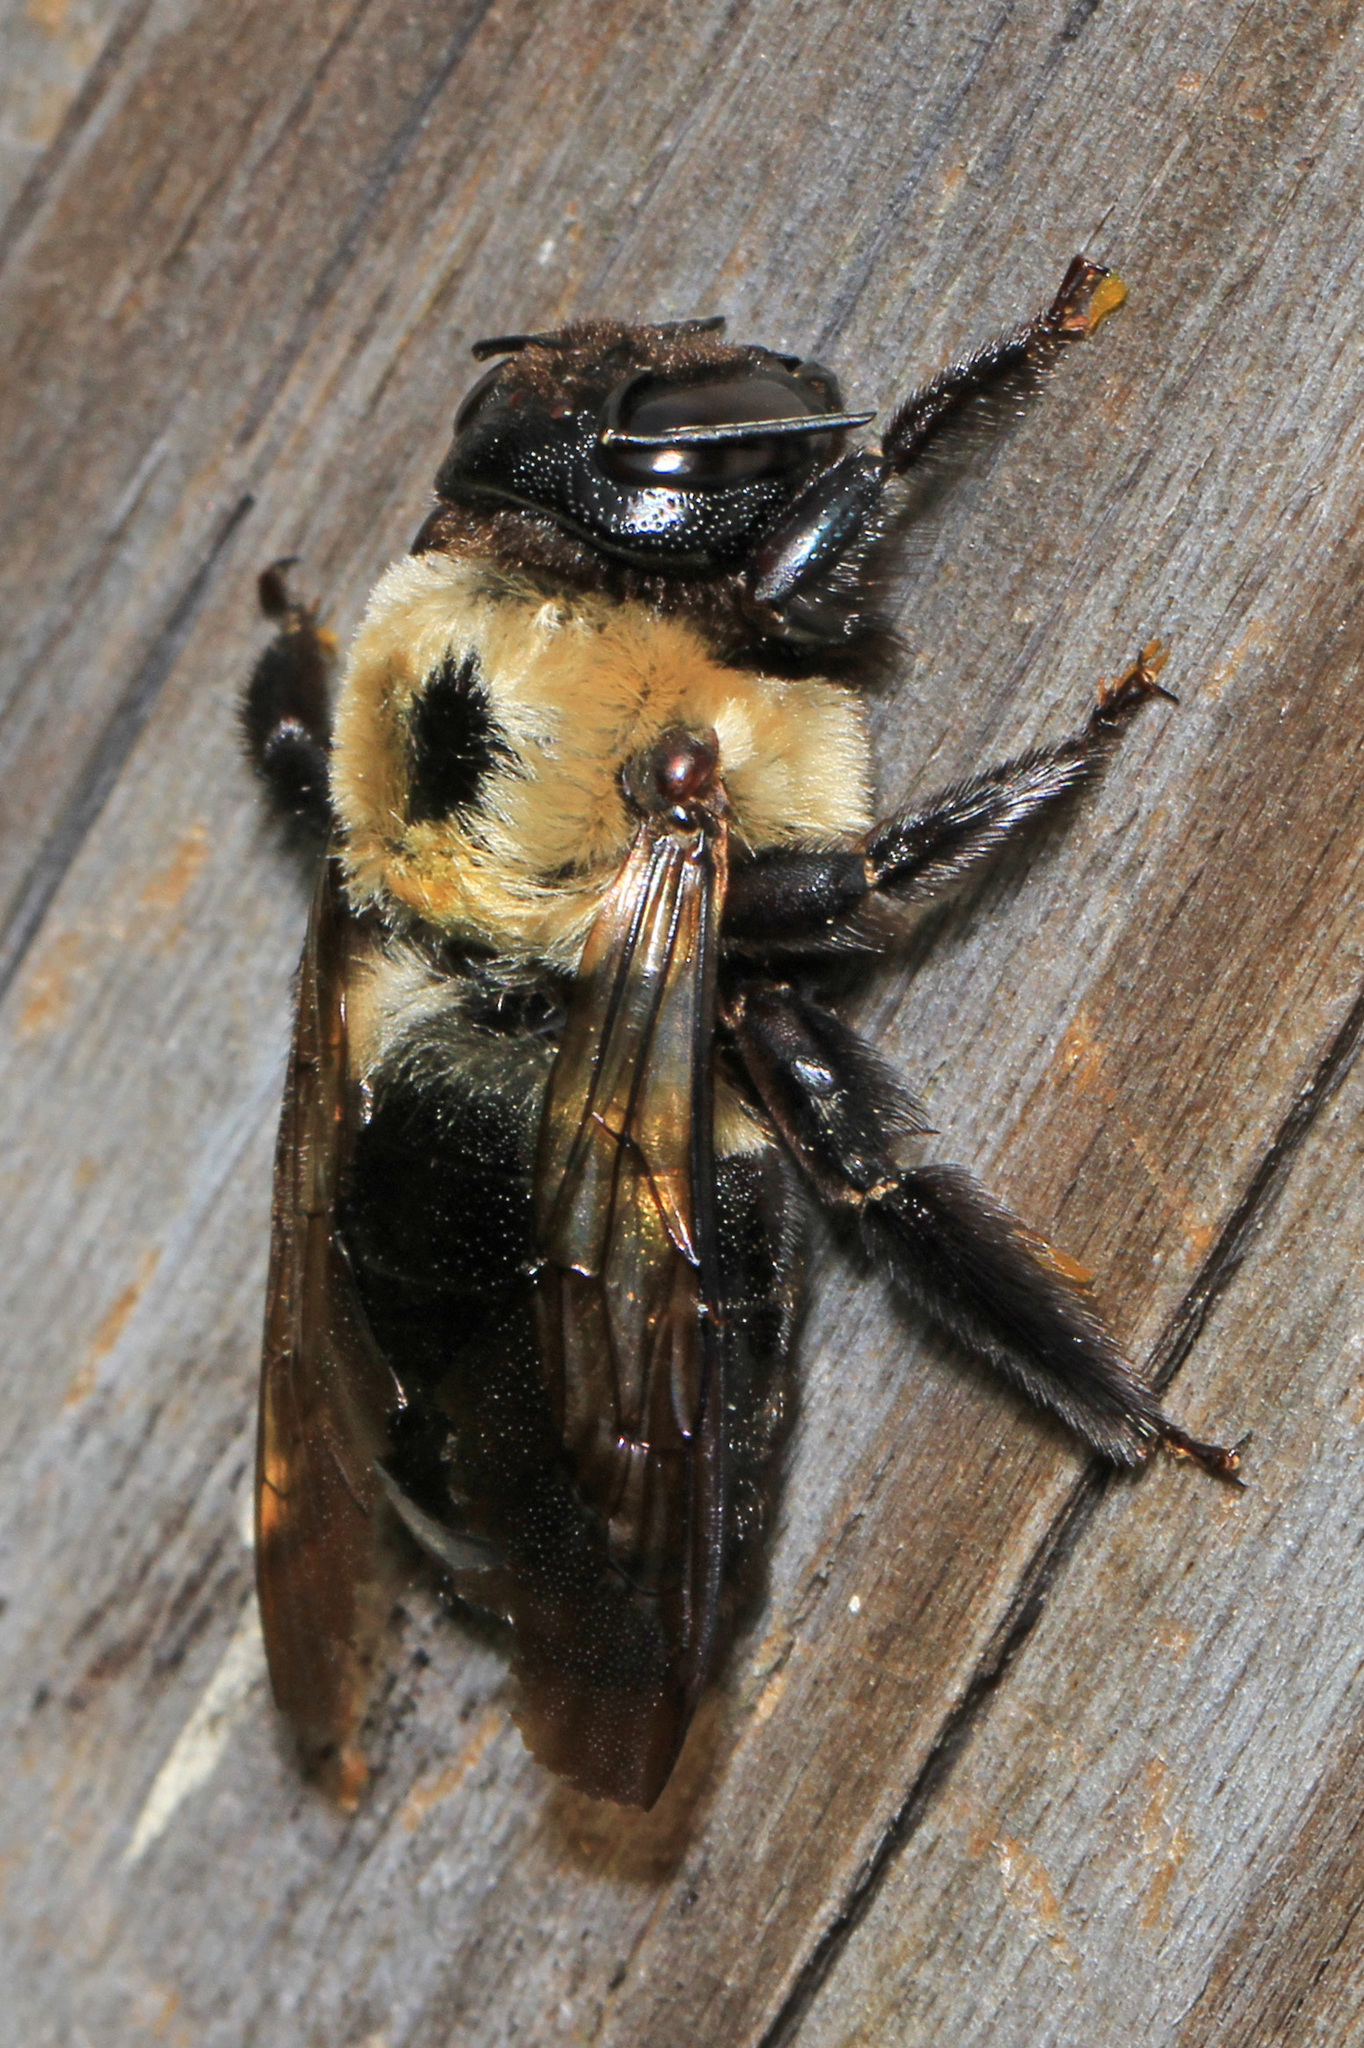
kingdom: Animalia
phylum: Arthropoda
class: Insecta
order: Hymenoptera
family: Apidae
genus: Xylocopa
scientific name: Xylocopa virginica
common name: Carpenter bee
